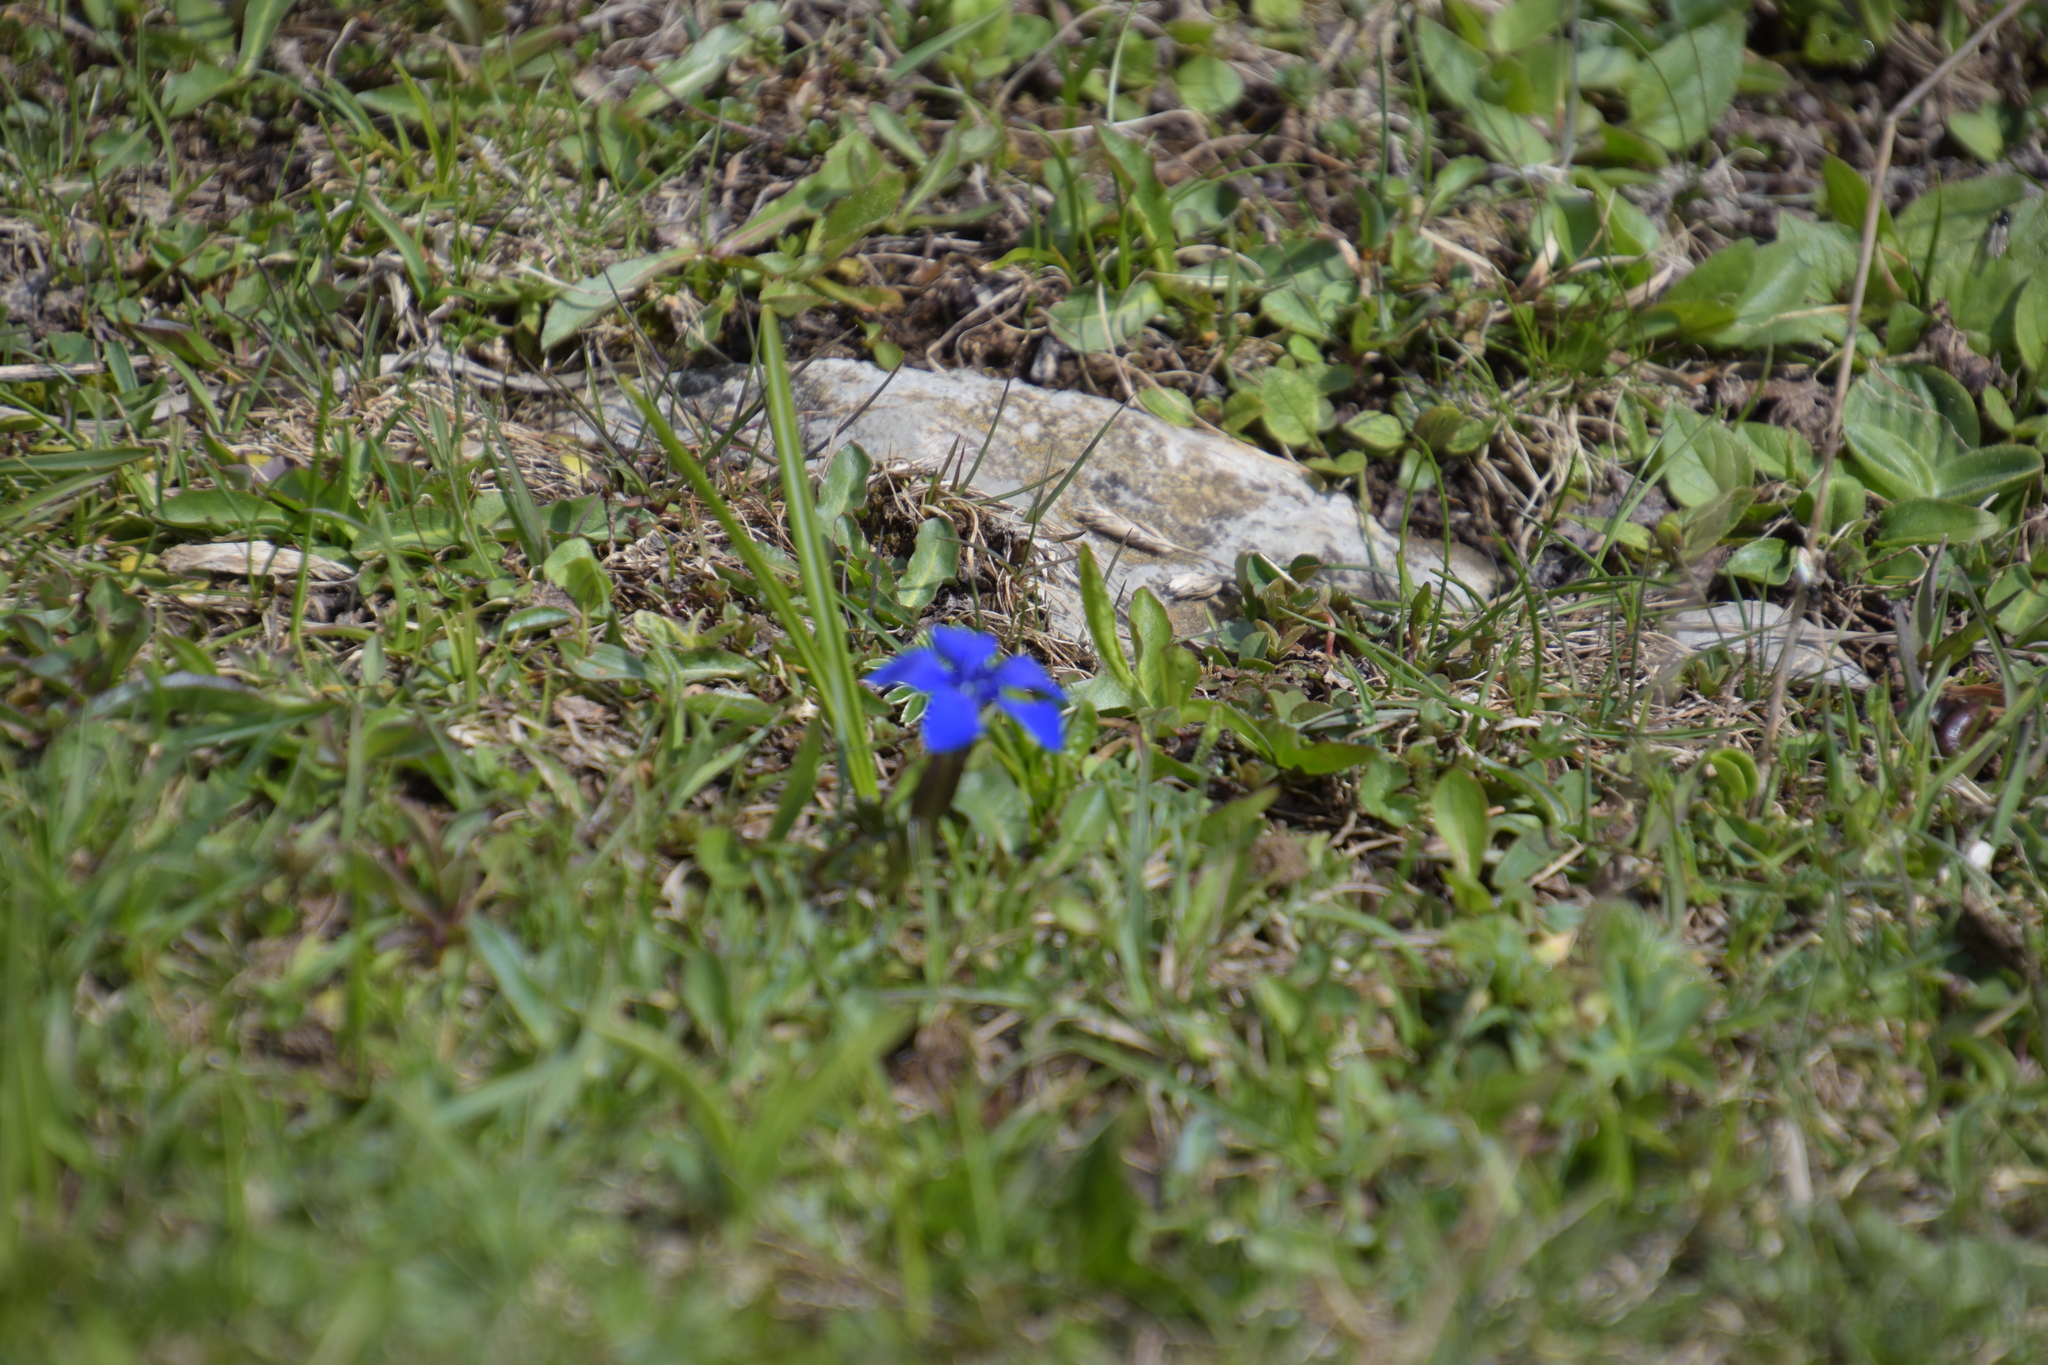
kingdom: Plantae
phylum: Tracheophyta
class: Magnoliopsida
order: Gentianales
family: Gentianaceae
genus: Gentiana
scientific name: Gentiana verna
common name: Spring gentian
